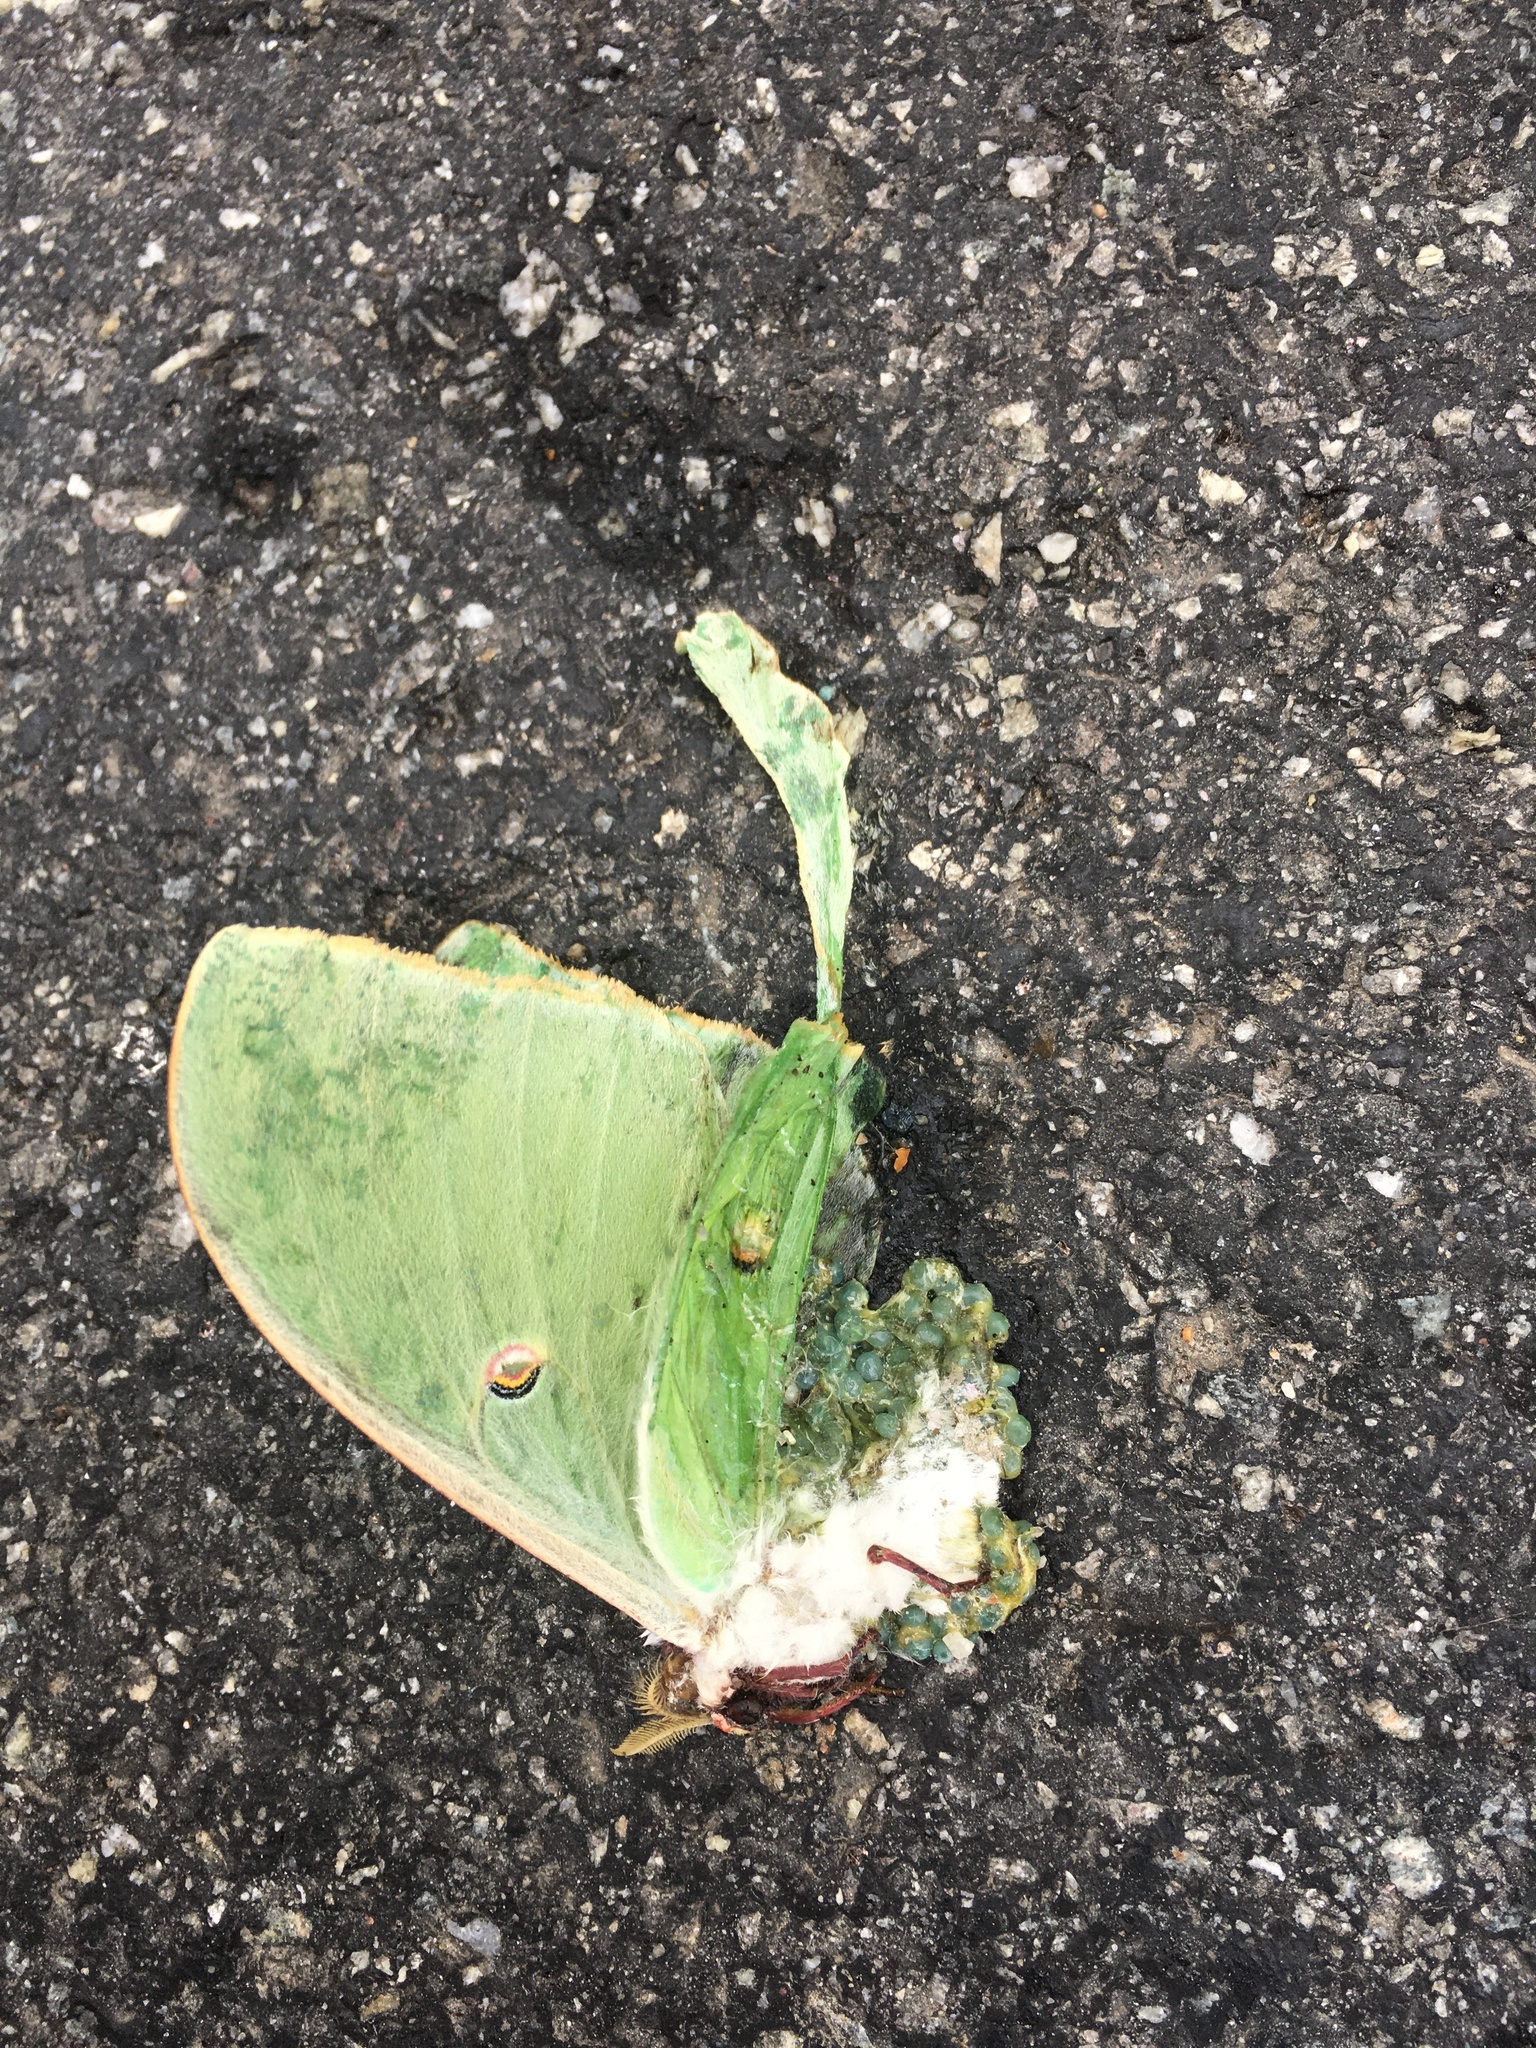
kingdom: Animalia
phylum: Arthropoda
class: Insecta
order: Lepidoptera
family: Saturniidae
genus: Actias
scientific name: Actias luna
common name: Luna moth
